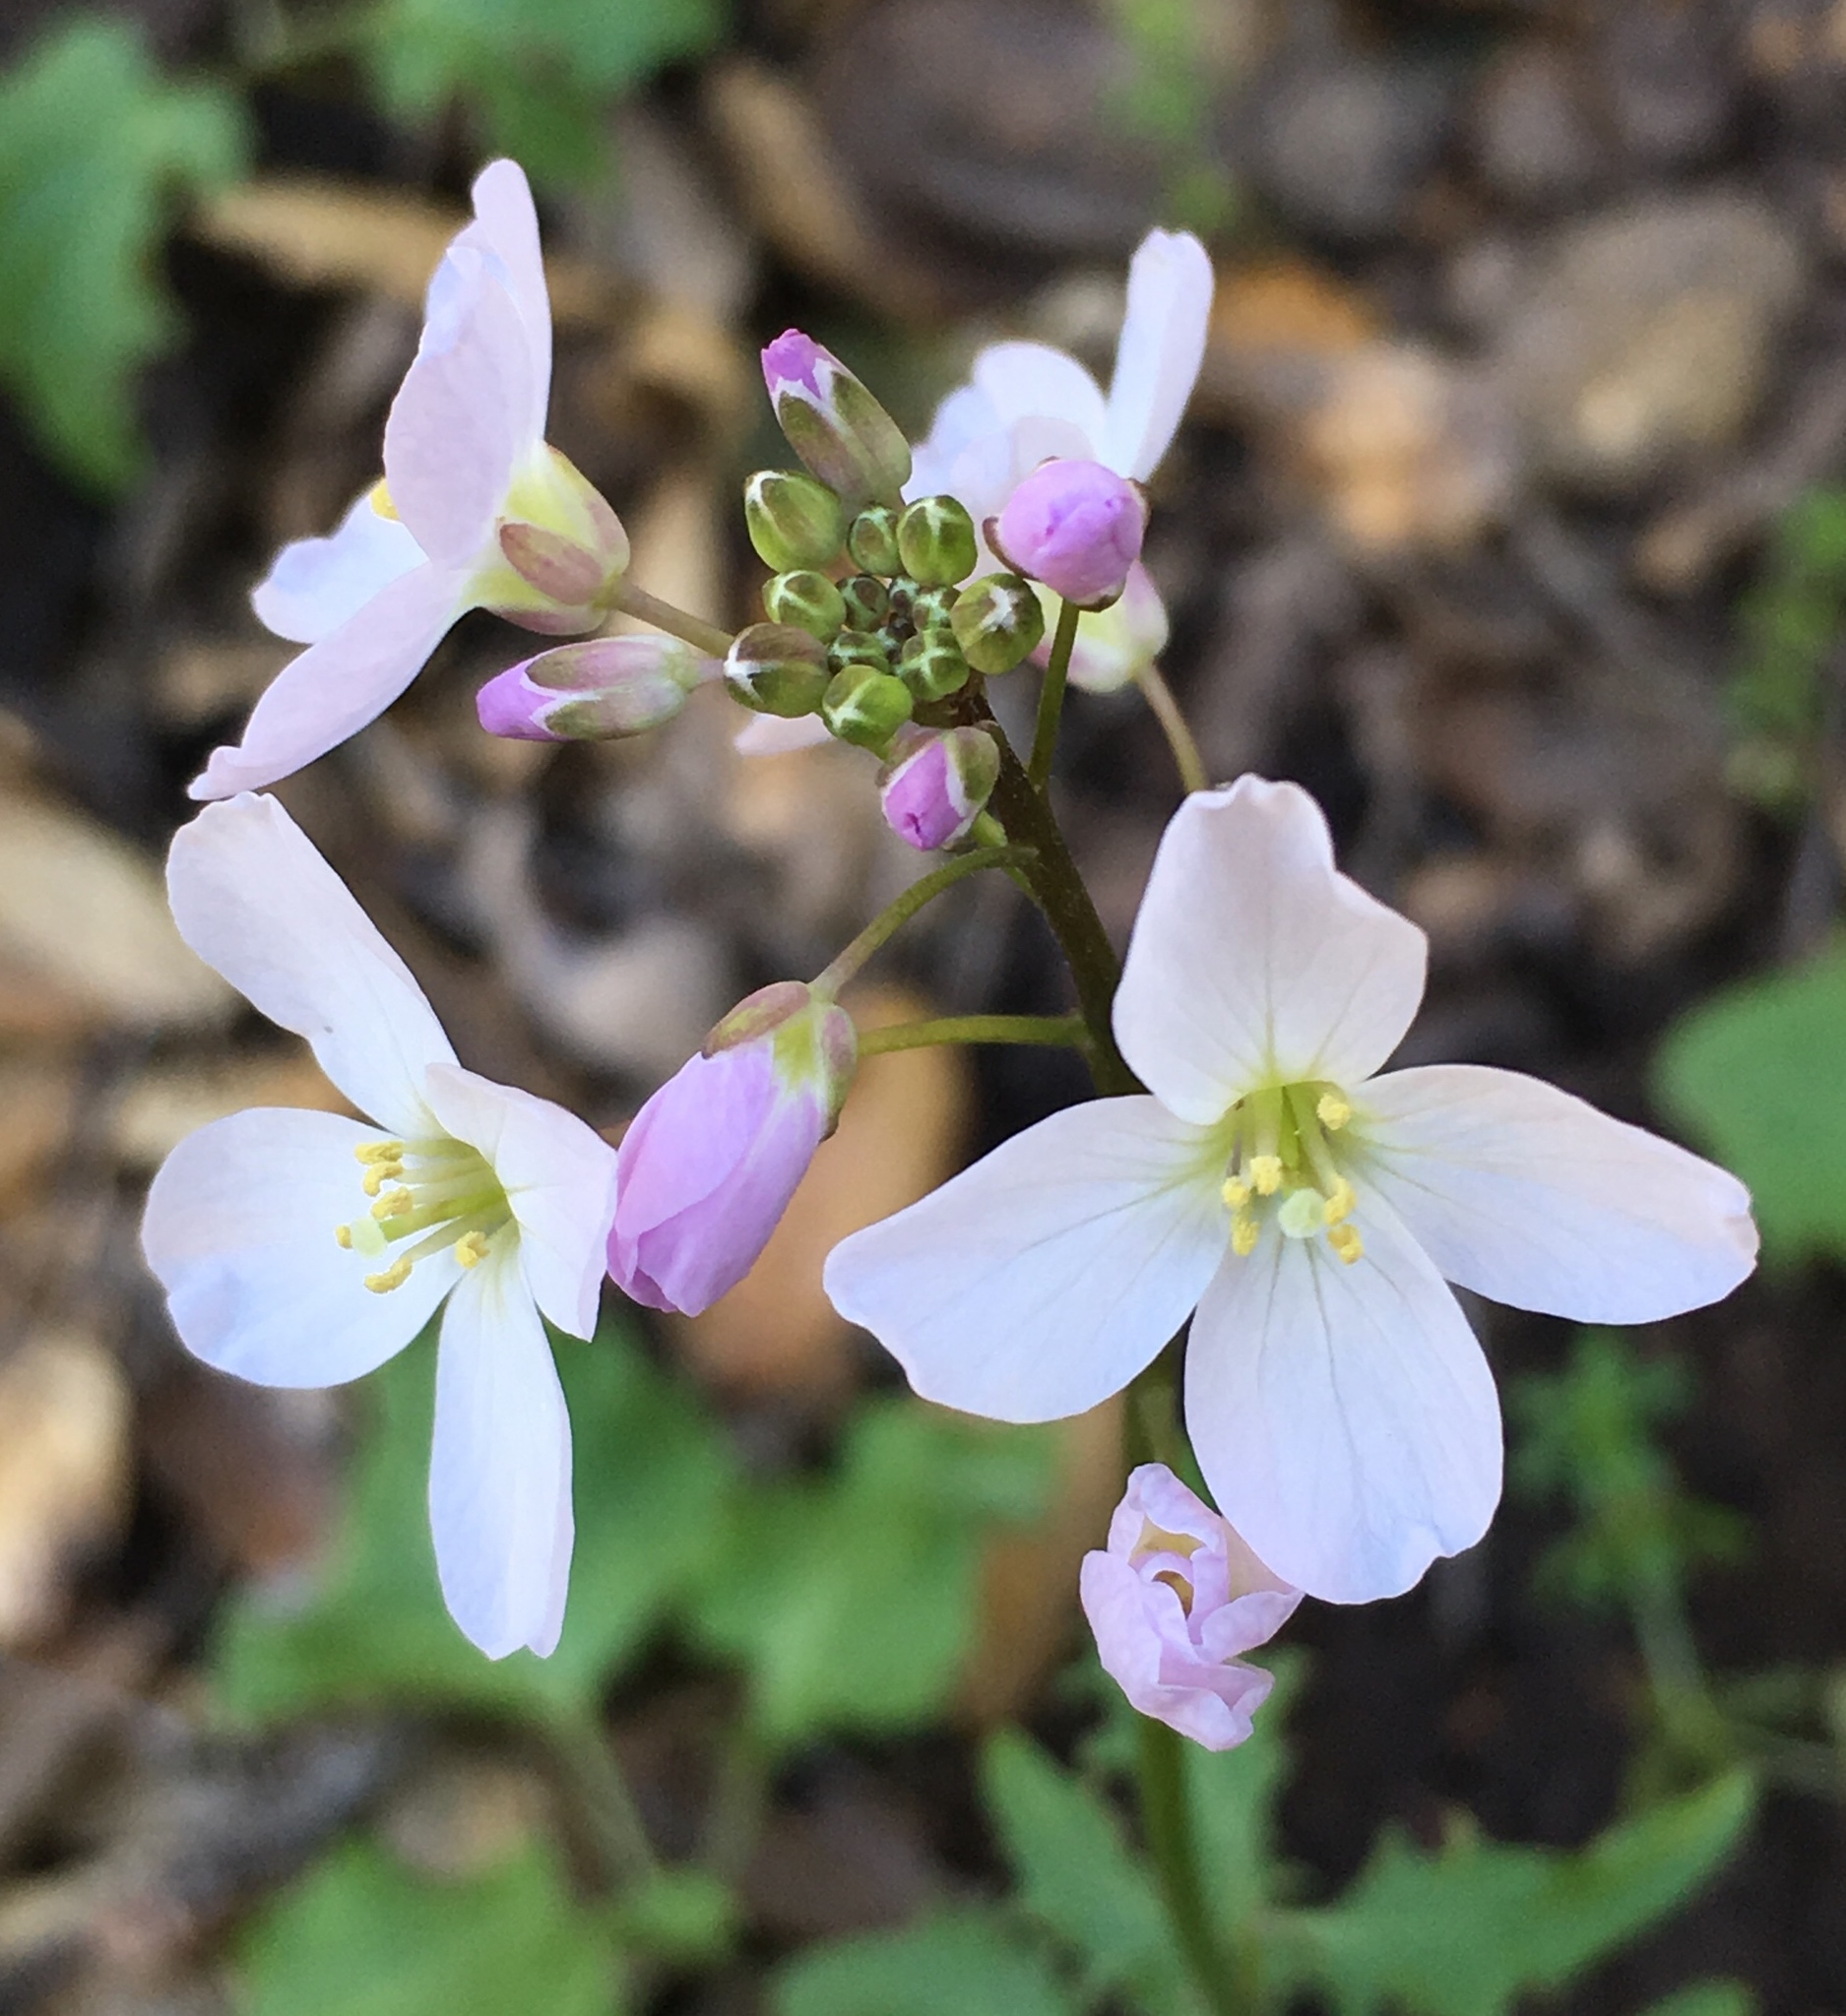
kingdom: Plantae
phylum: Tracheophyta
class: Magnoliopsida
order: Brassicales
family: Brassicaceae
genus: Cardamine
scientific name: Cardamine californica
